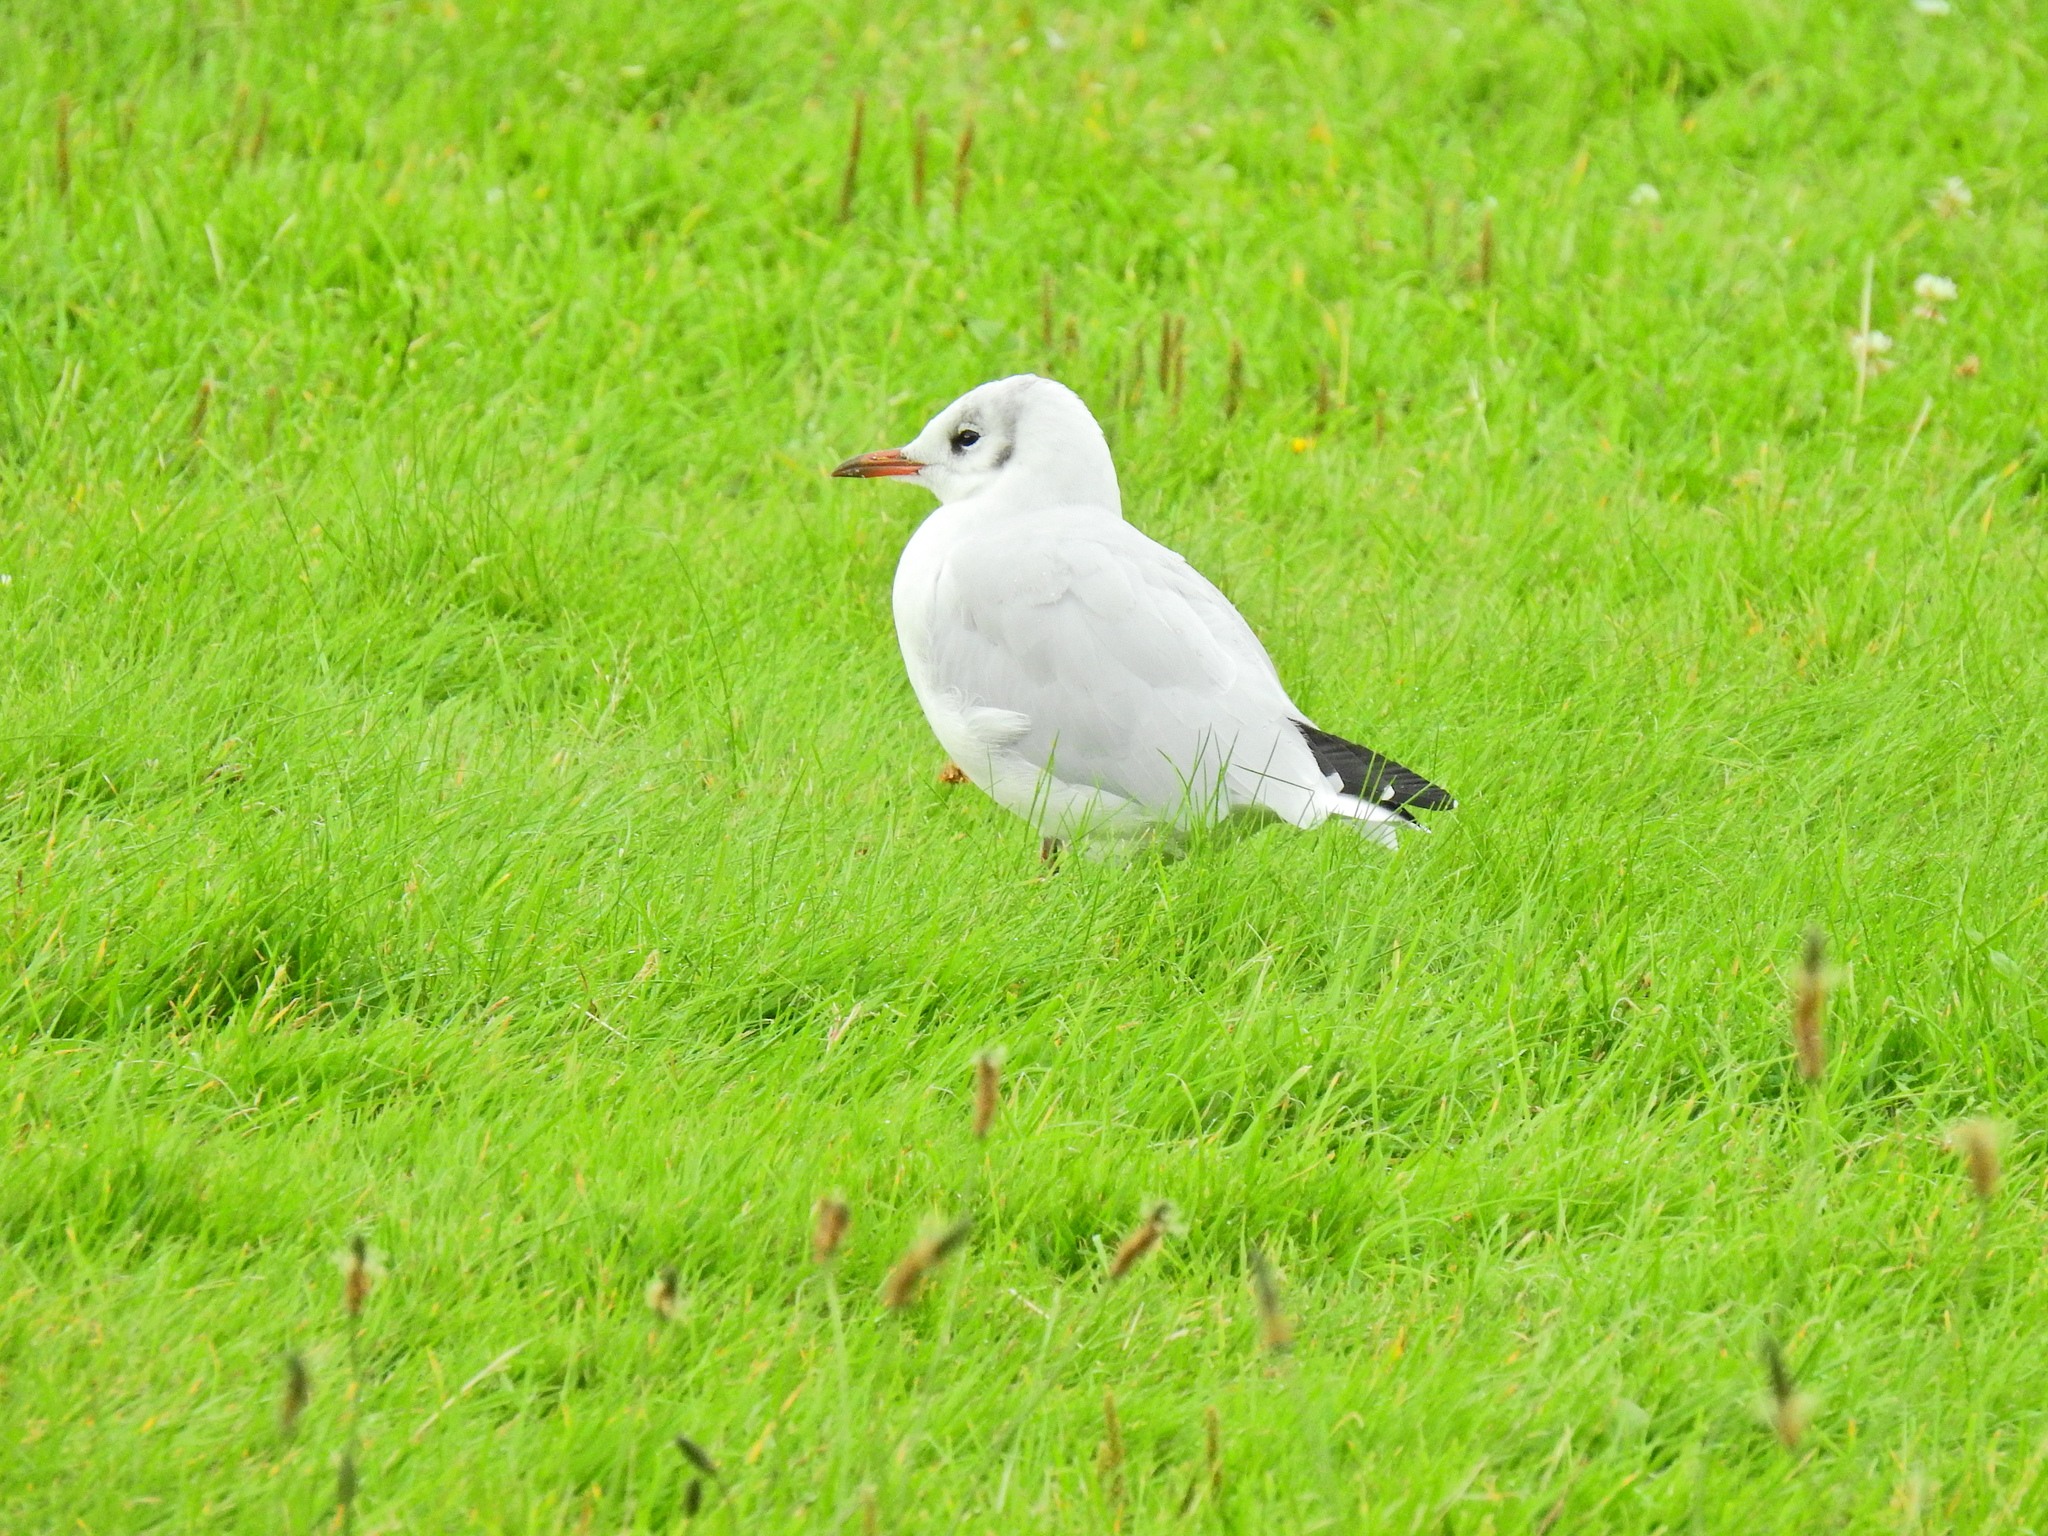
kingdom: Animalia
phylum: Chordata
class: Aves
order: Charadriiformes
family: Laridae
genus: Chroicocephalus
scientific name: Chroicocephalus ridibundus
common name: Black-headed gull
